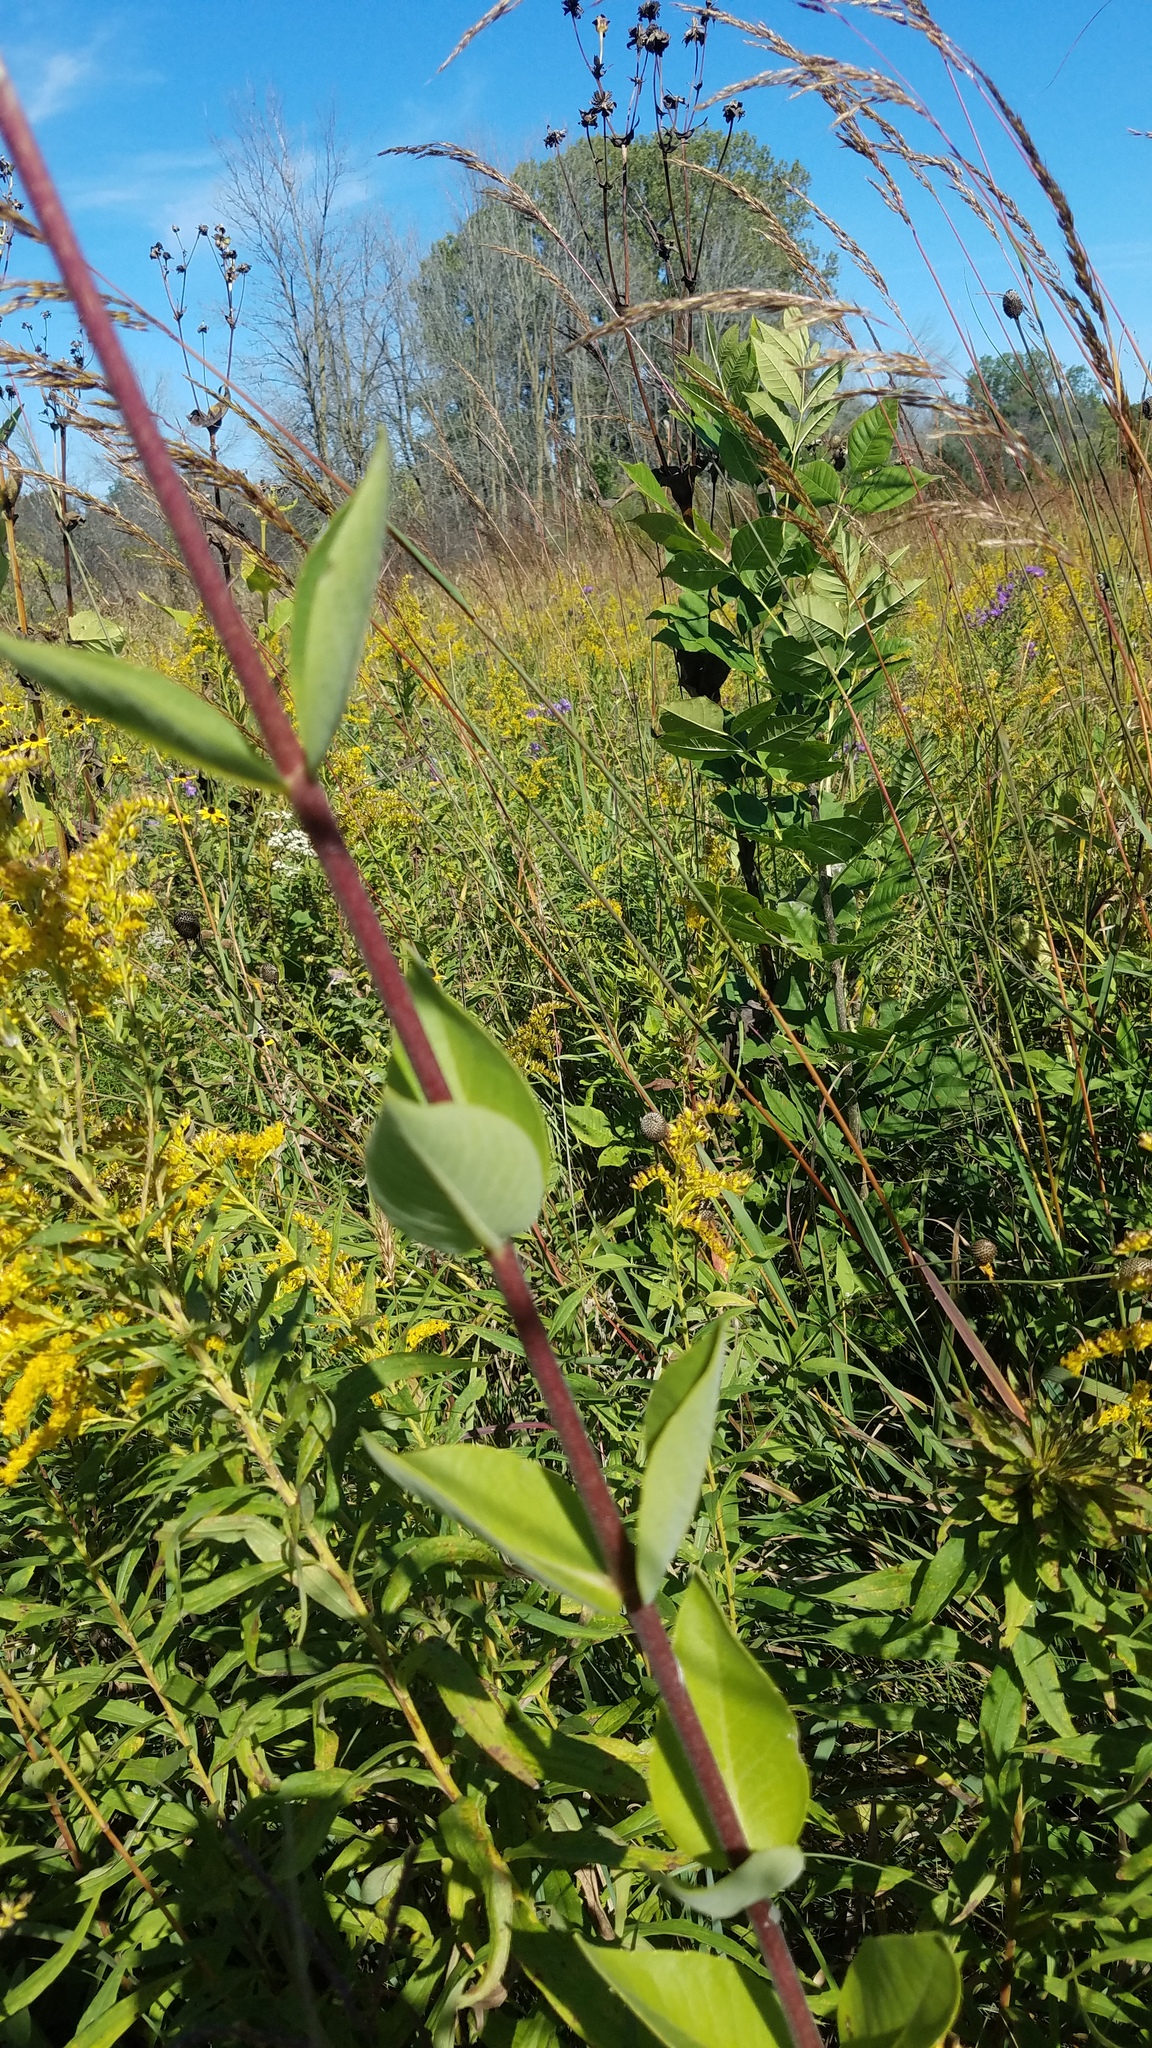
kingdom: Plantae
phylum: Tracheophyta
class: Magnoliopsida
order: Asterales
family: Asteraceae
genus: Silphium
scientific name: Silphium integrifolium
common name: Whole-leaf rosinweed
